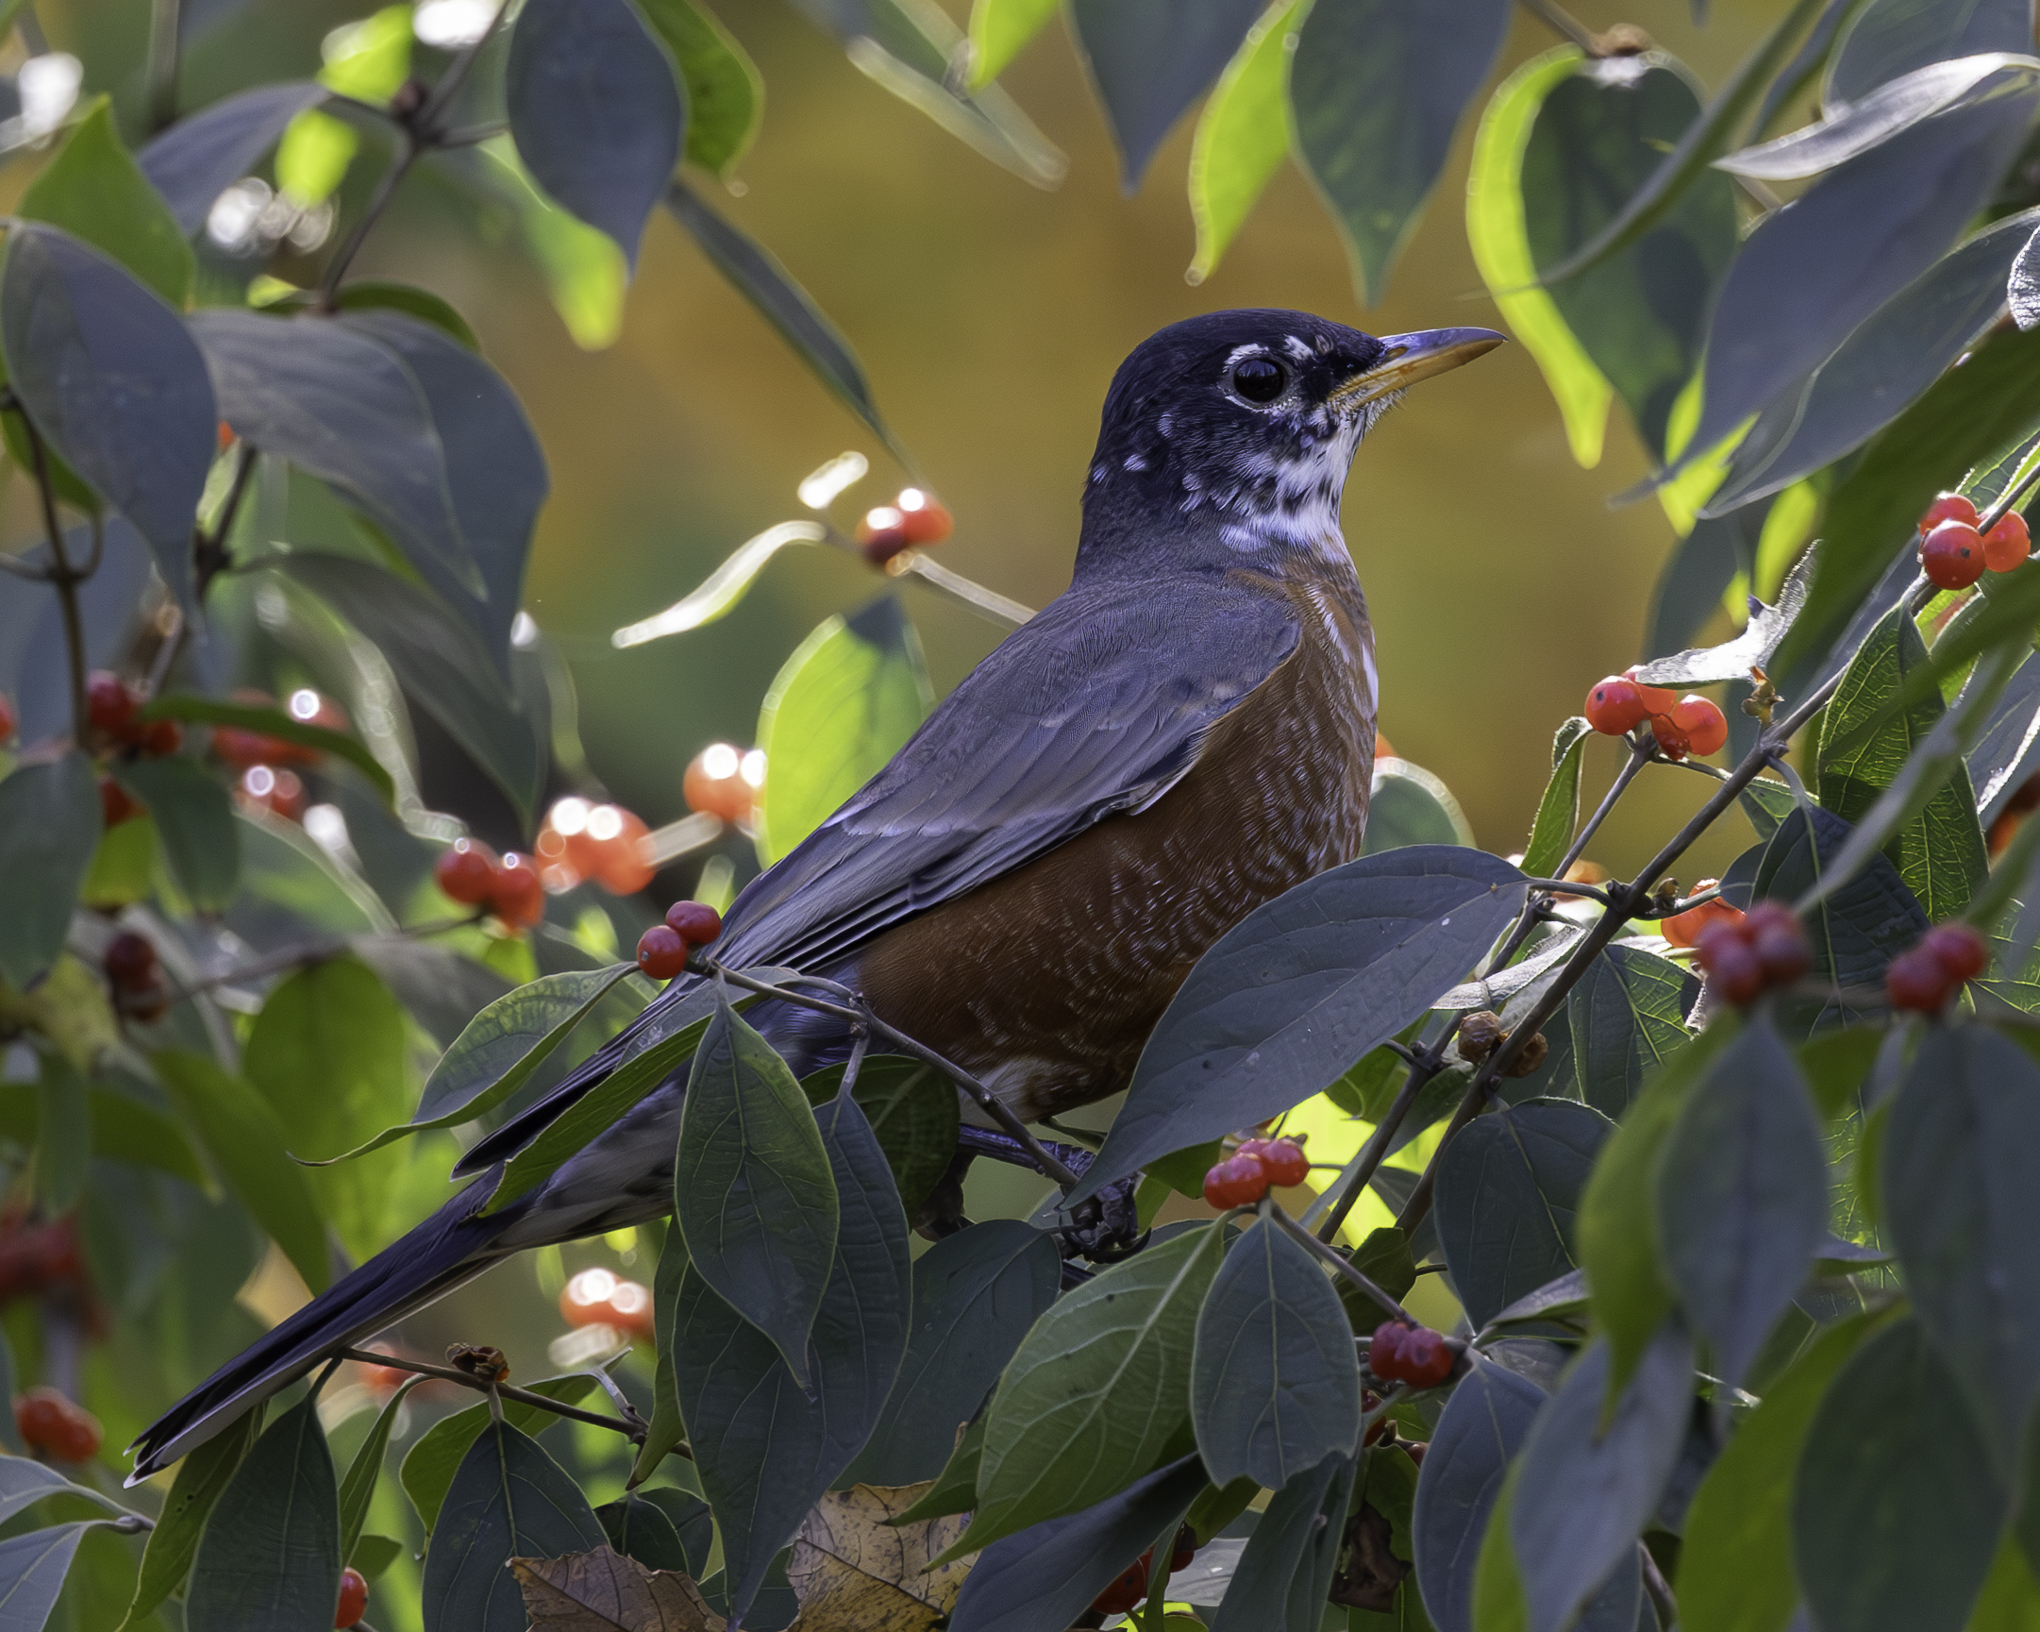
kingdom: Animalia
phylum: Chordata
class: Aves
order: Passeriformes
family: Turdidae
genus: Turdus
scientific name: Turdus migratorius
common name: American robin
